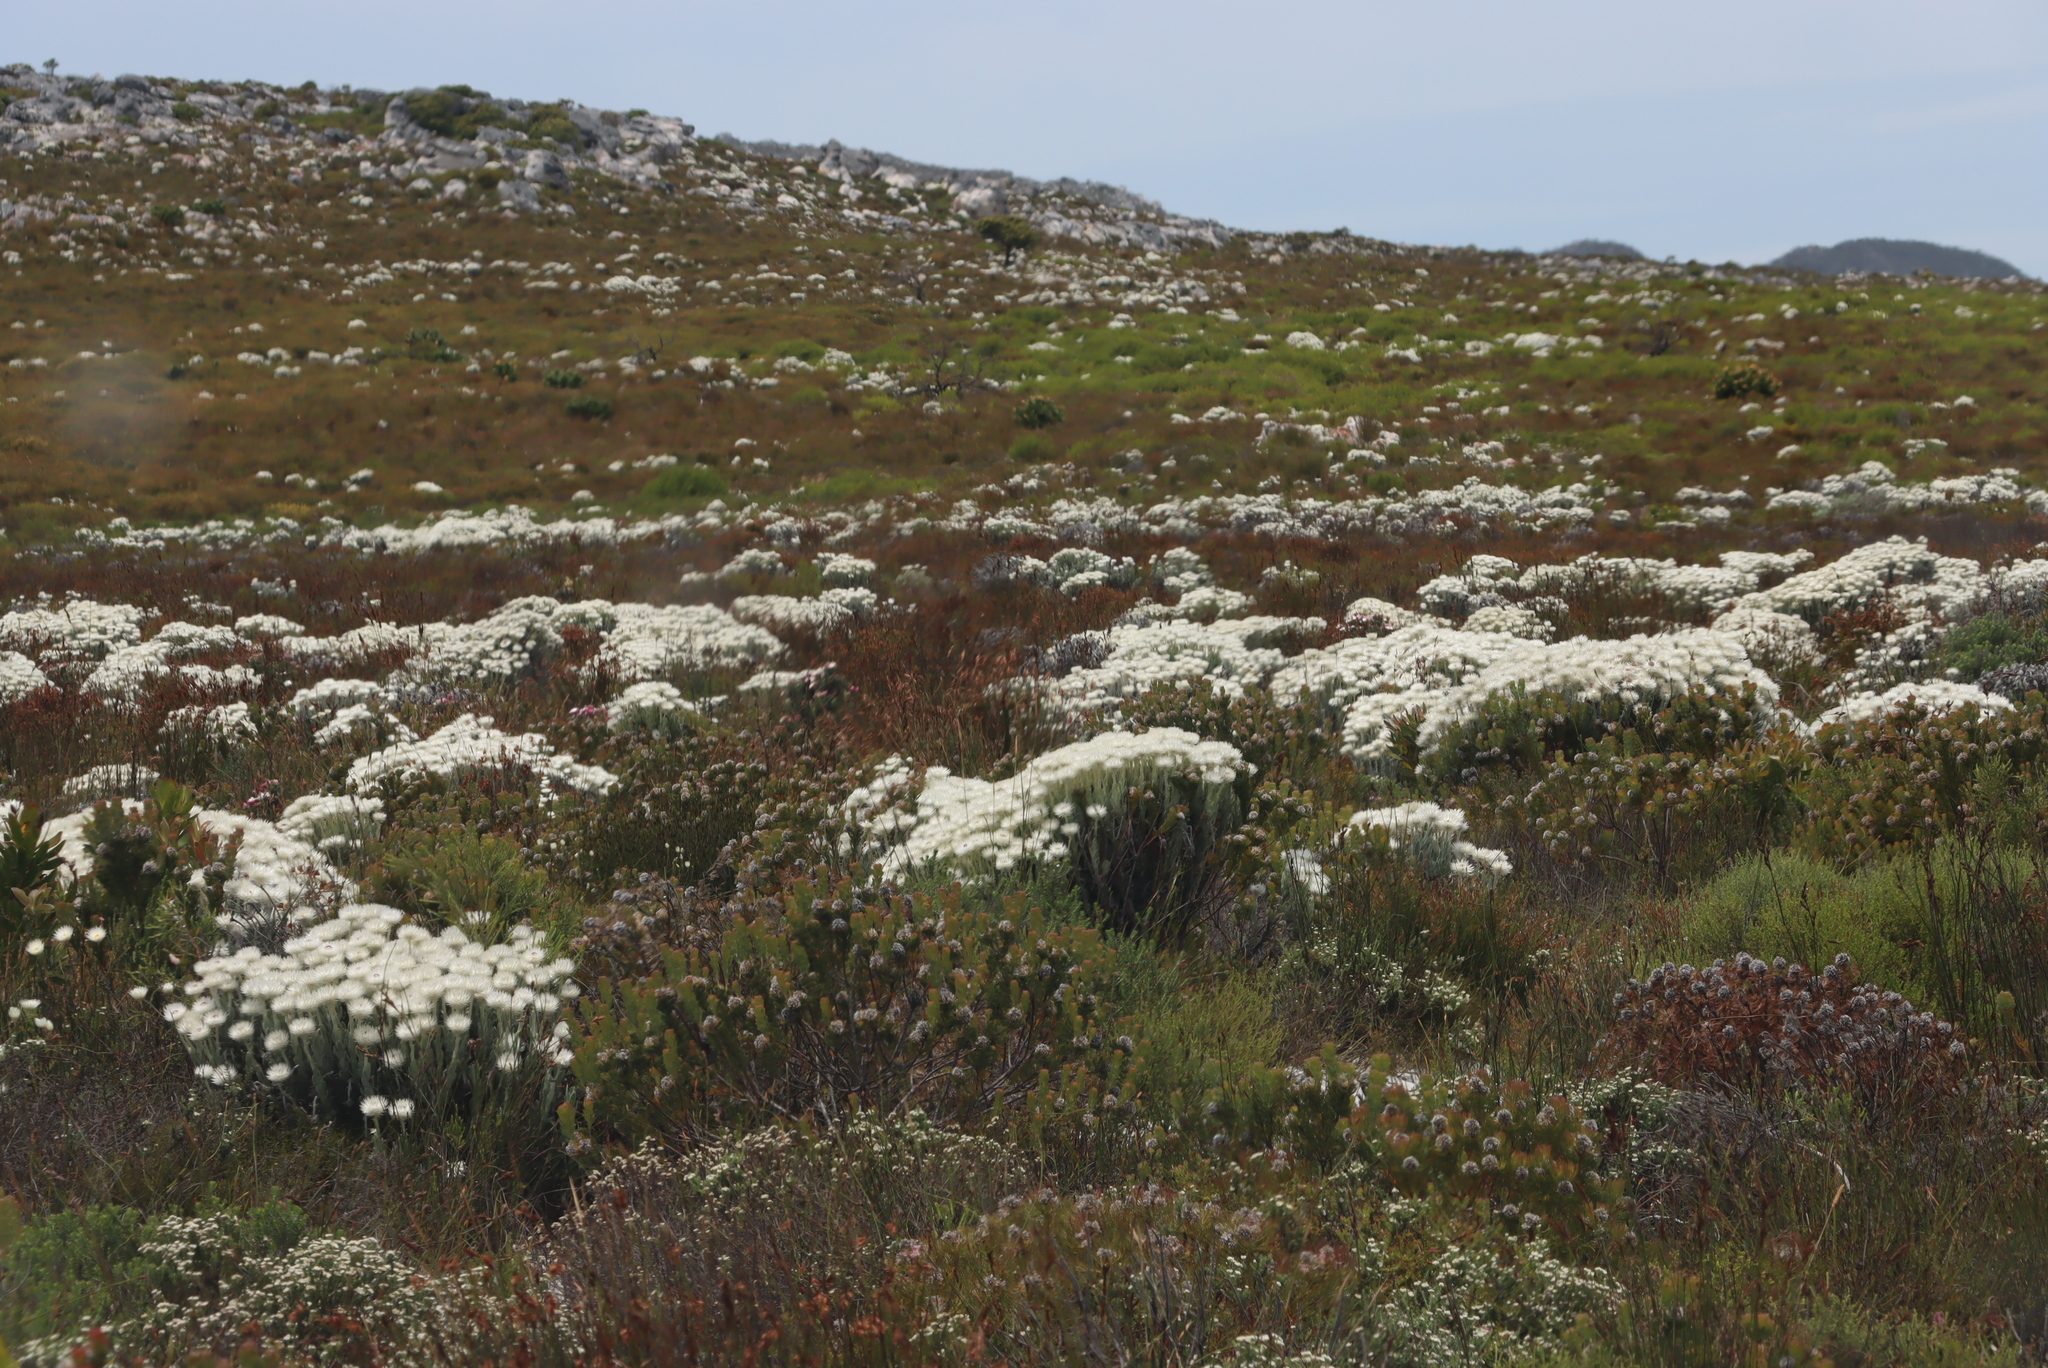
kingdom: Plantae
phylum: Tracheophyta
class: Magnoliopsida
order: Asterales
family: Asteraceae
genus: Syncarpha
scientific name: Syncarpha vestita
